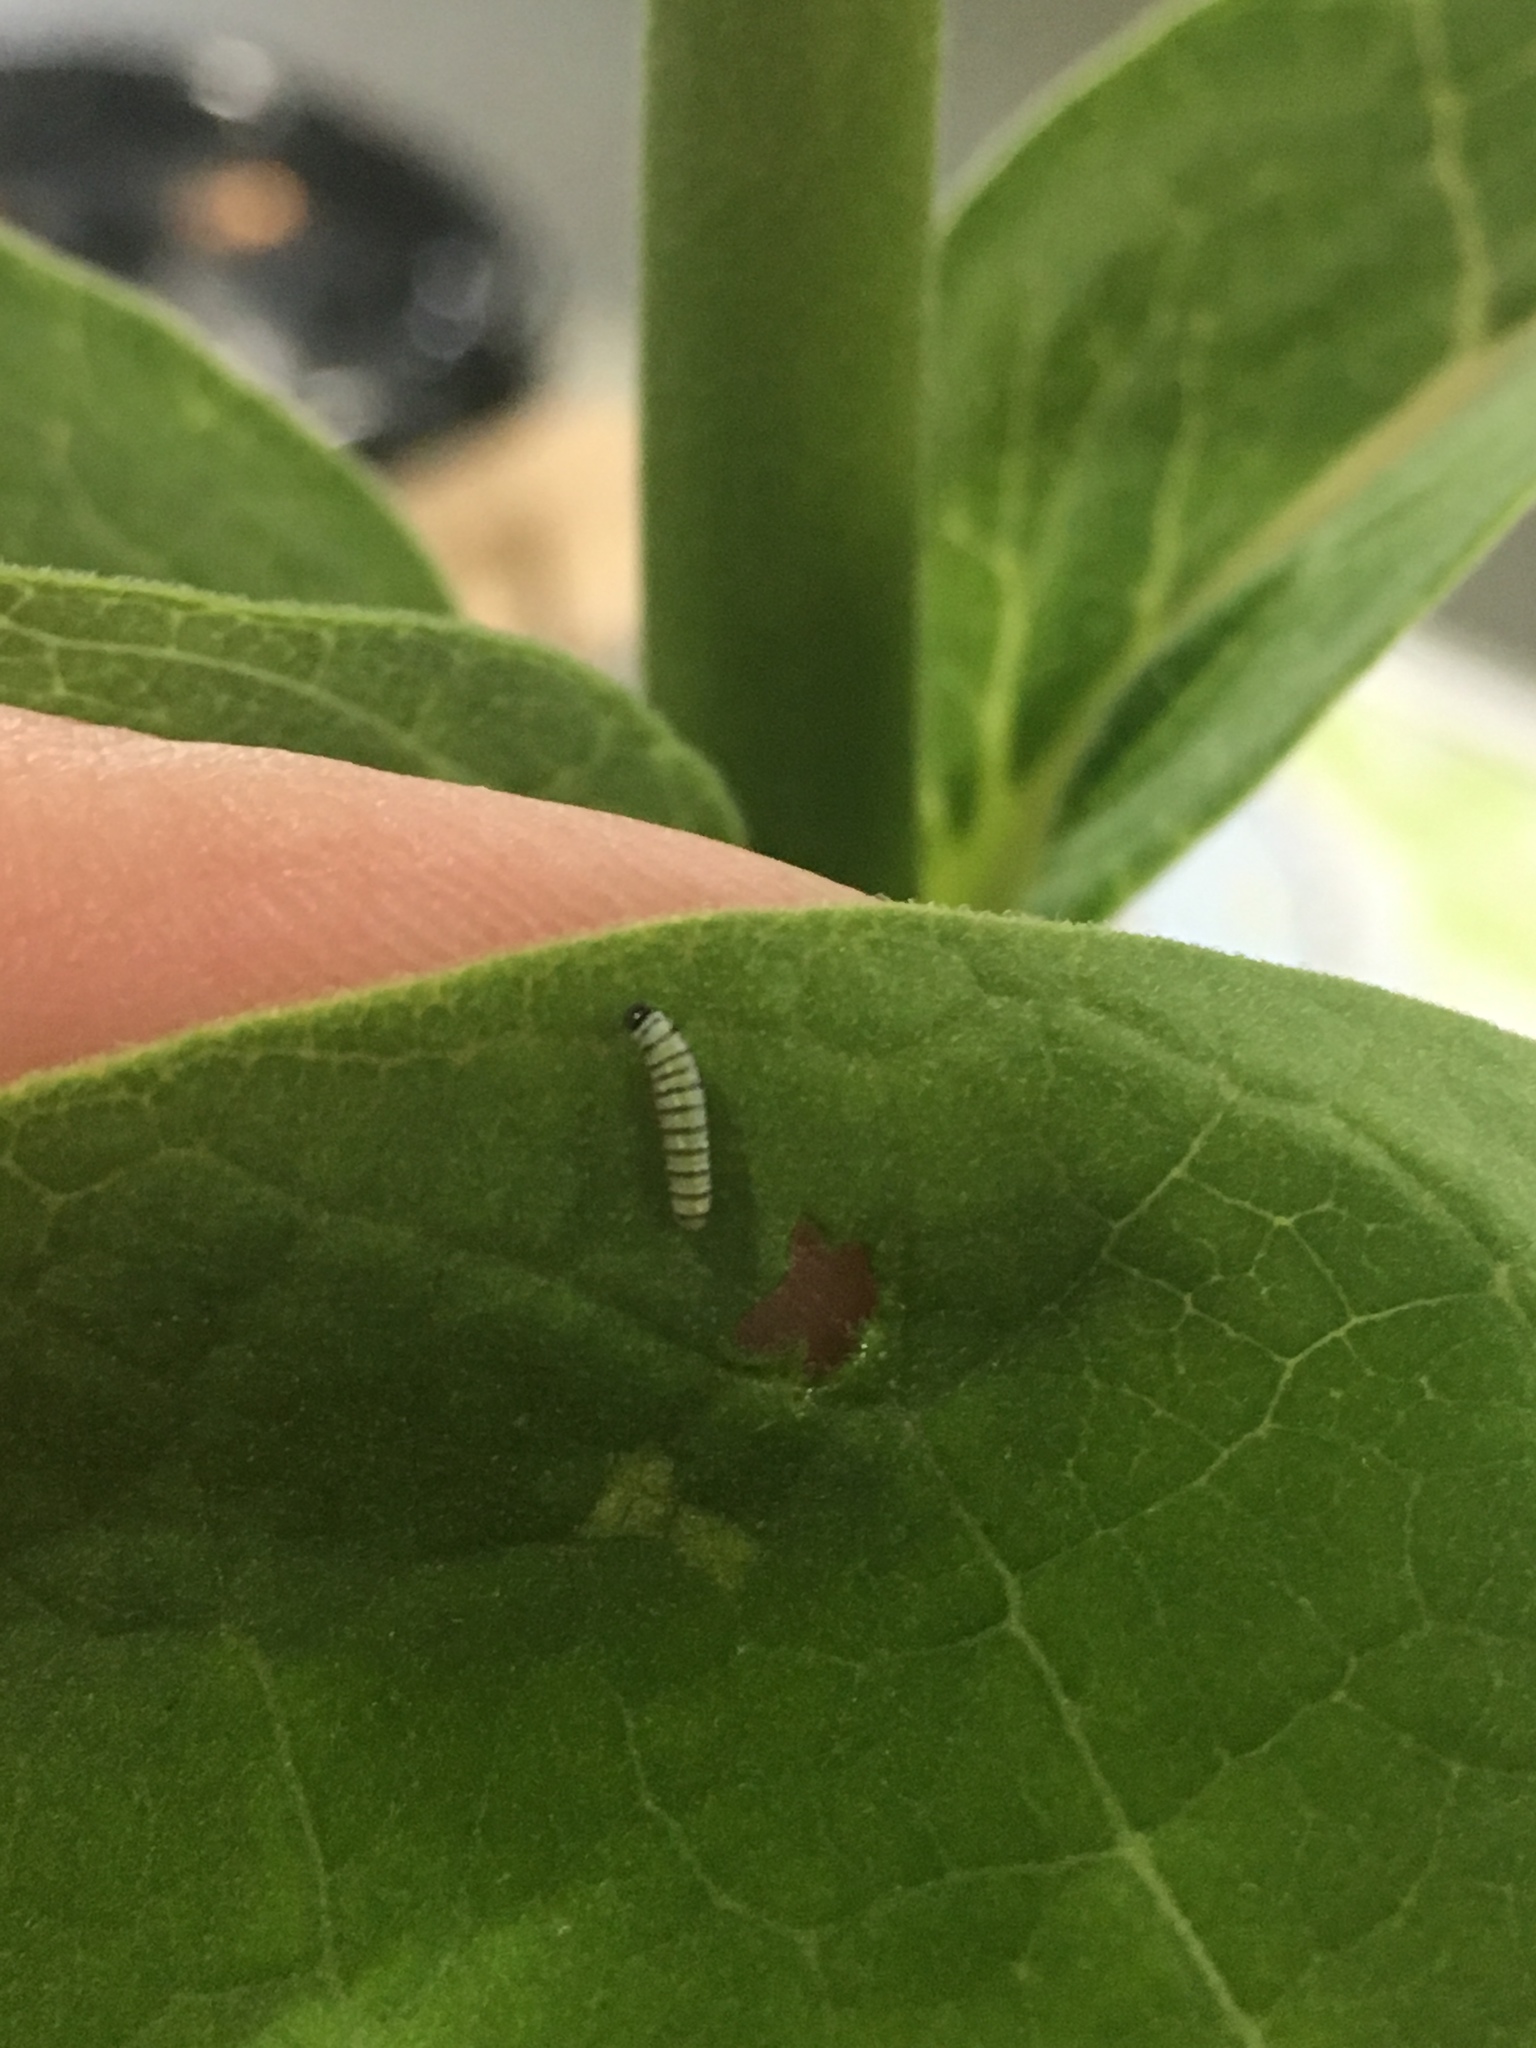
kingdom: Animalia
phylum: Arthropoda
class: Insecta
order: Lepidoptera
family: Nymphalidae
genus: Danaus
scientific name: Danaus plexippus
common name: Monarch
